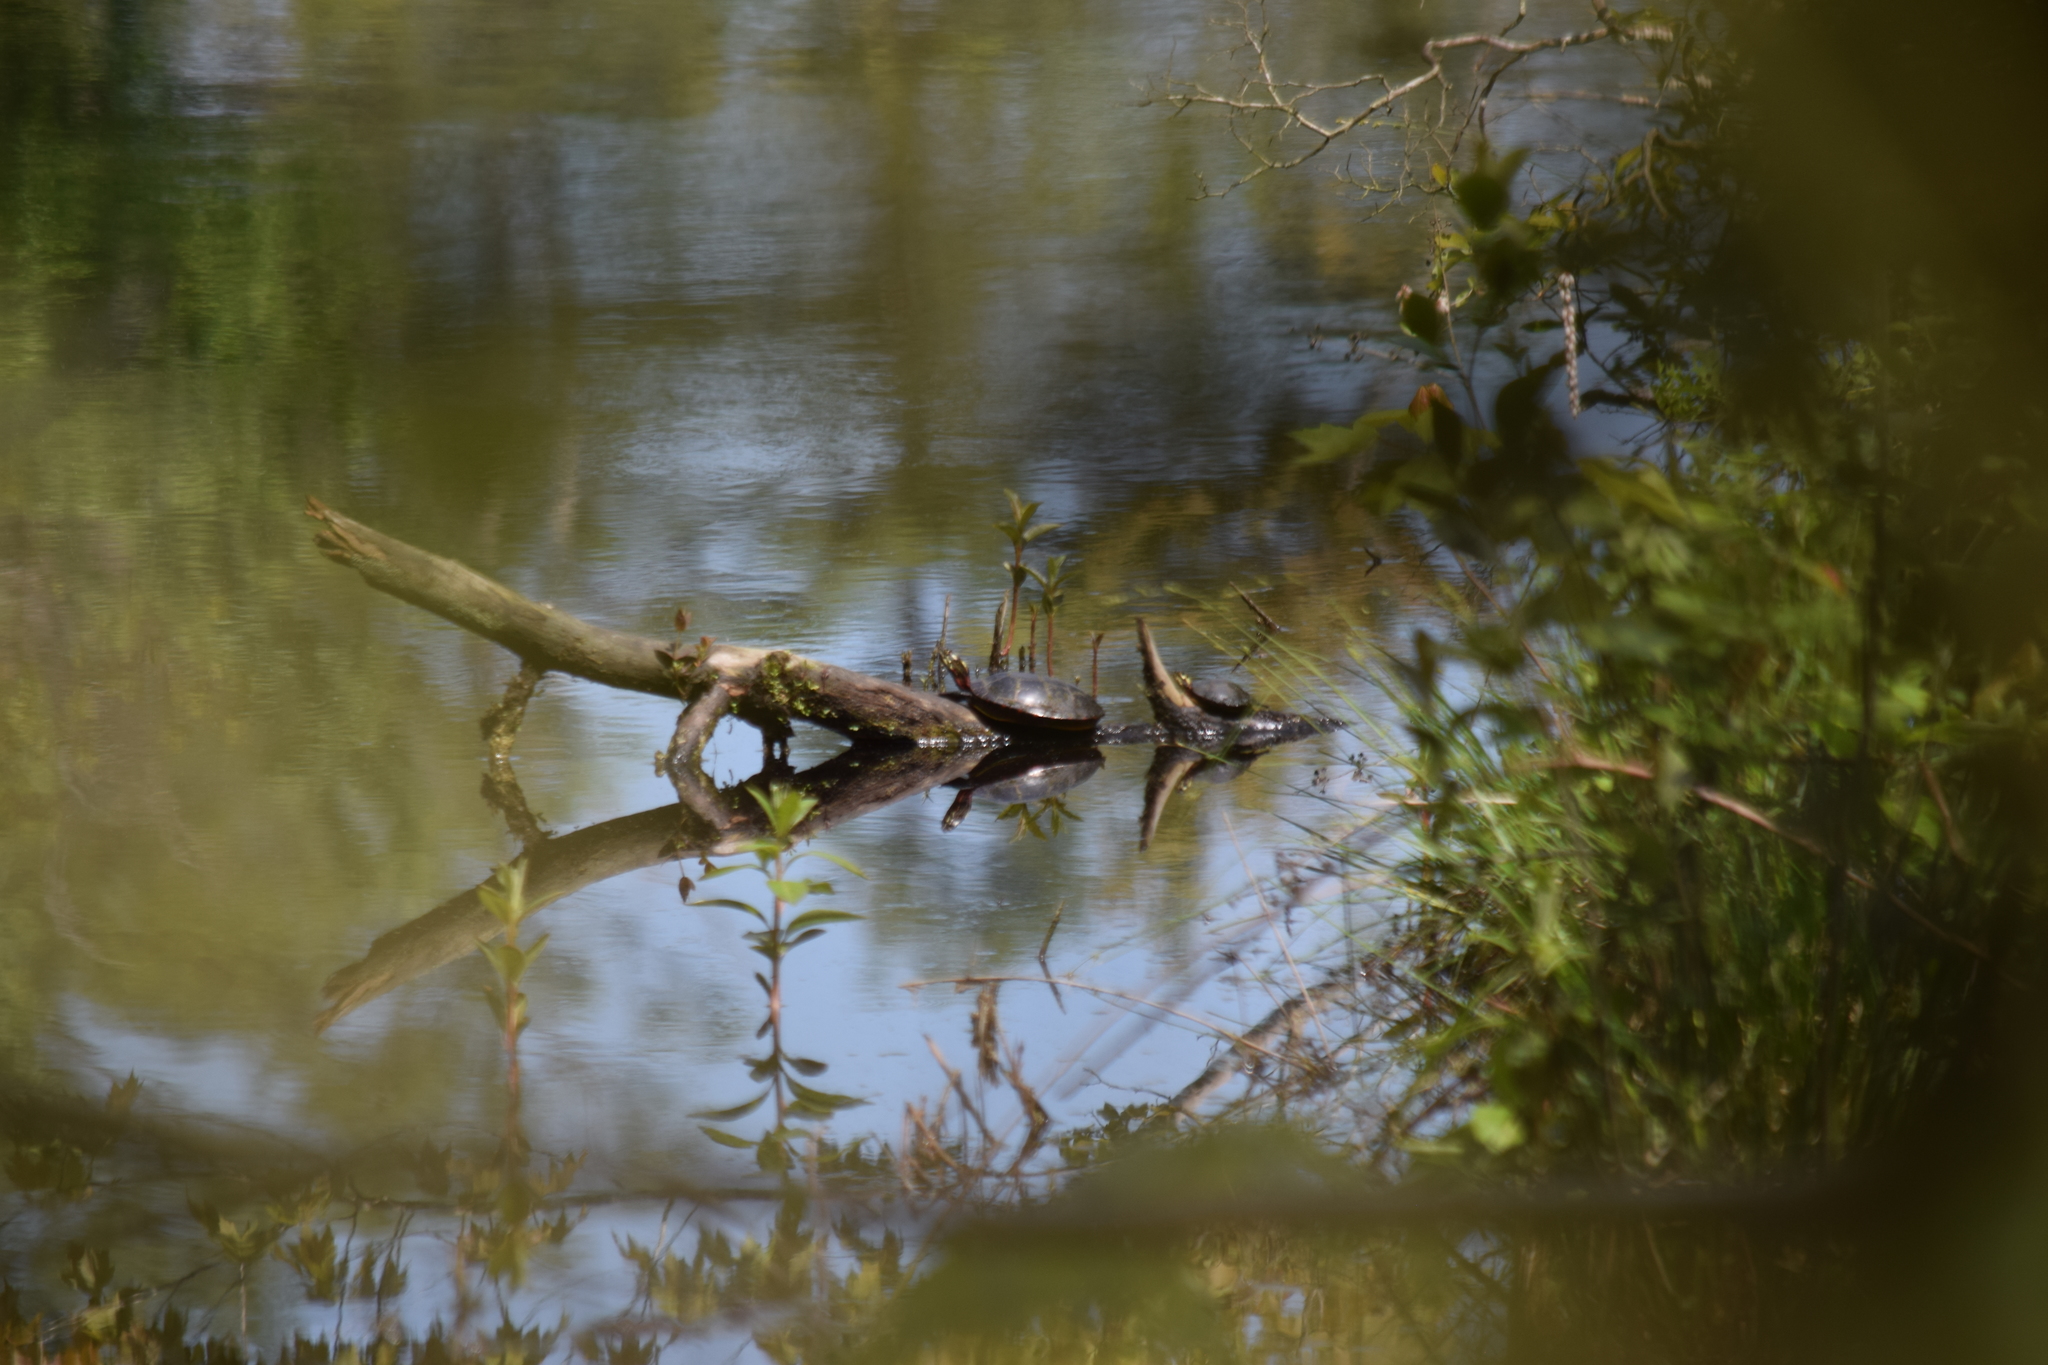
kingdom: Animalia
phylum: Chordata
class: Testudines
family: Emydidae
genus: Chrysemys
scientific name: Chrysemys picta
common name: Painted turtle
